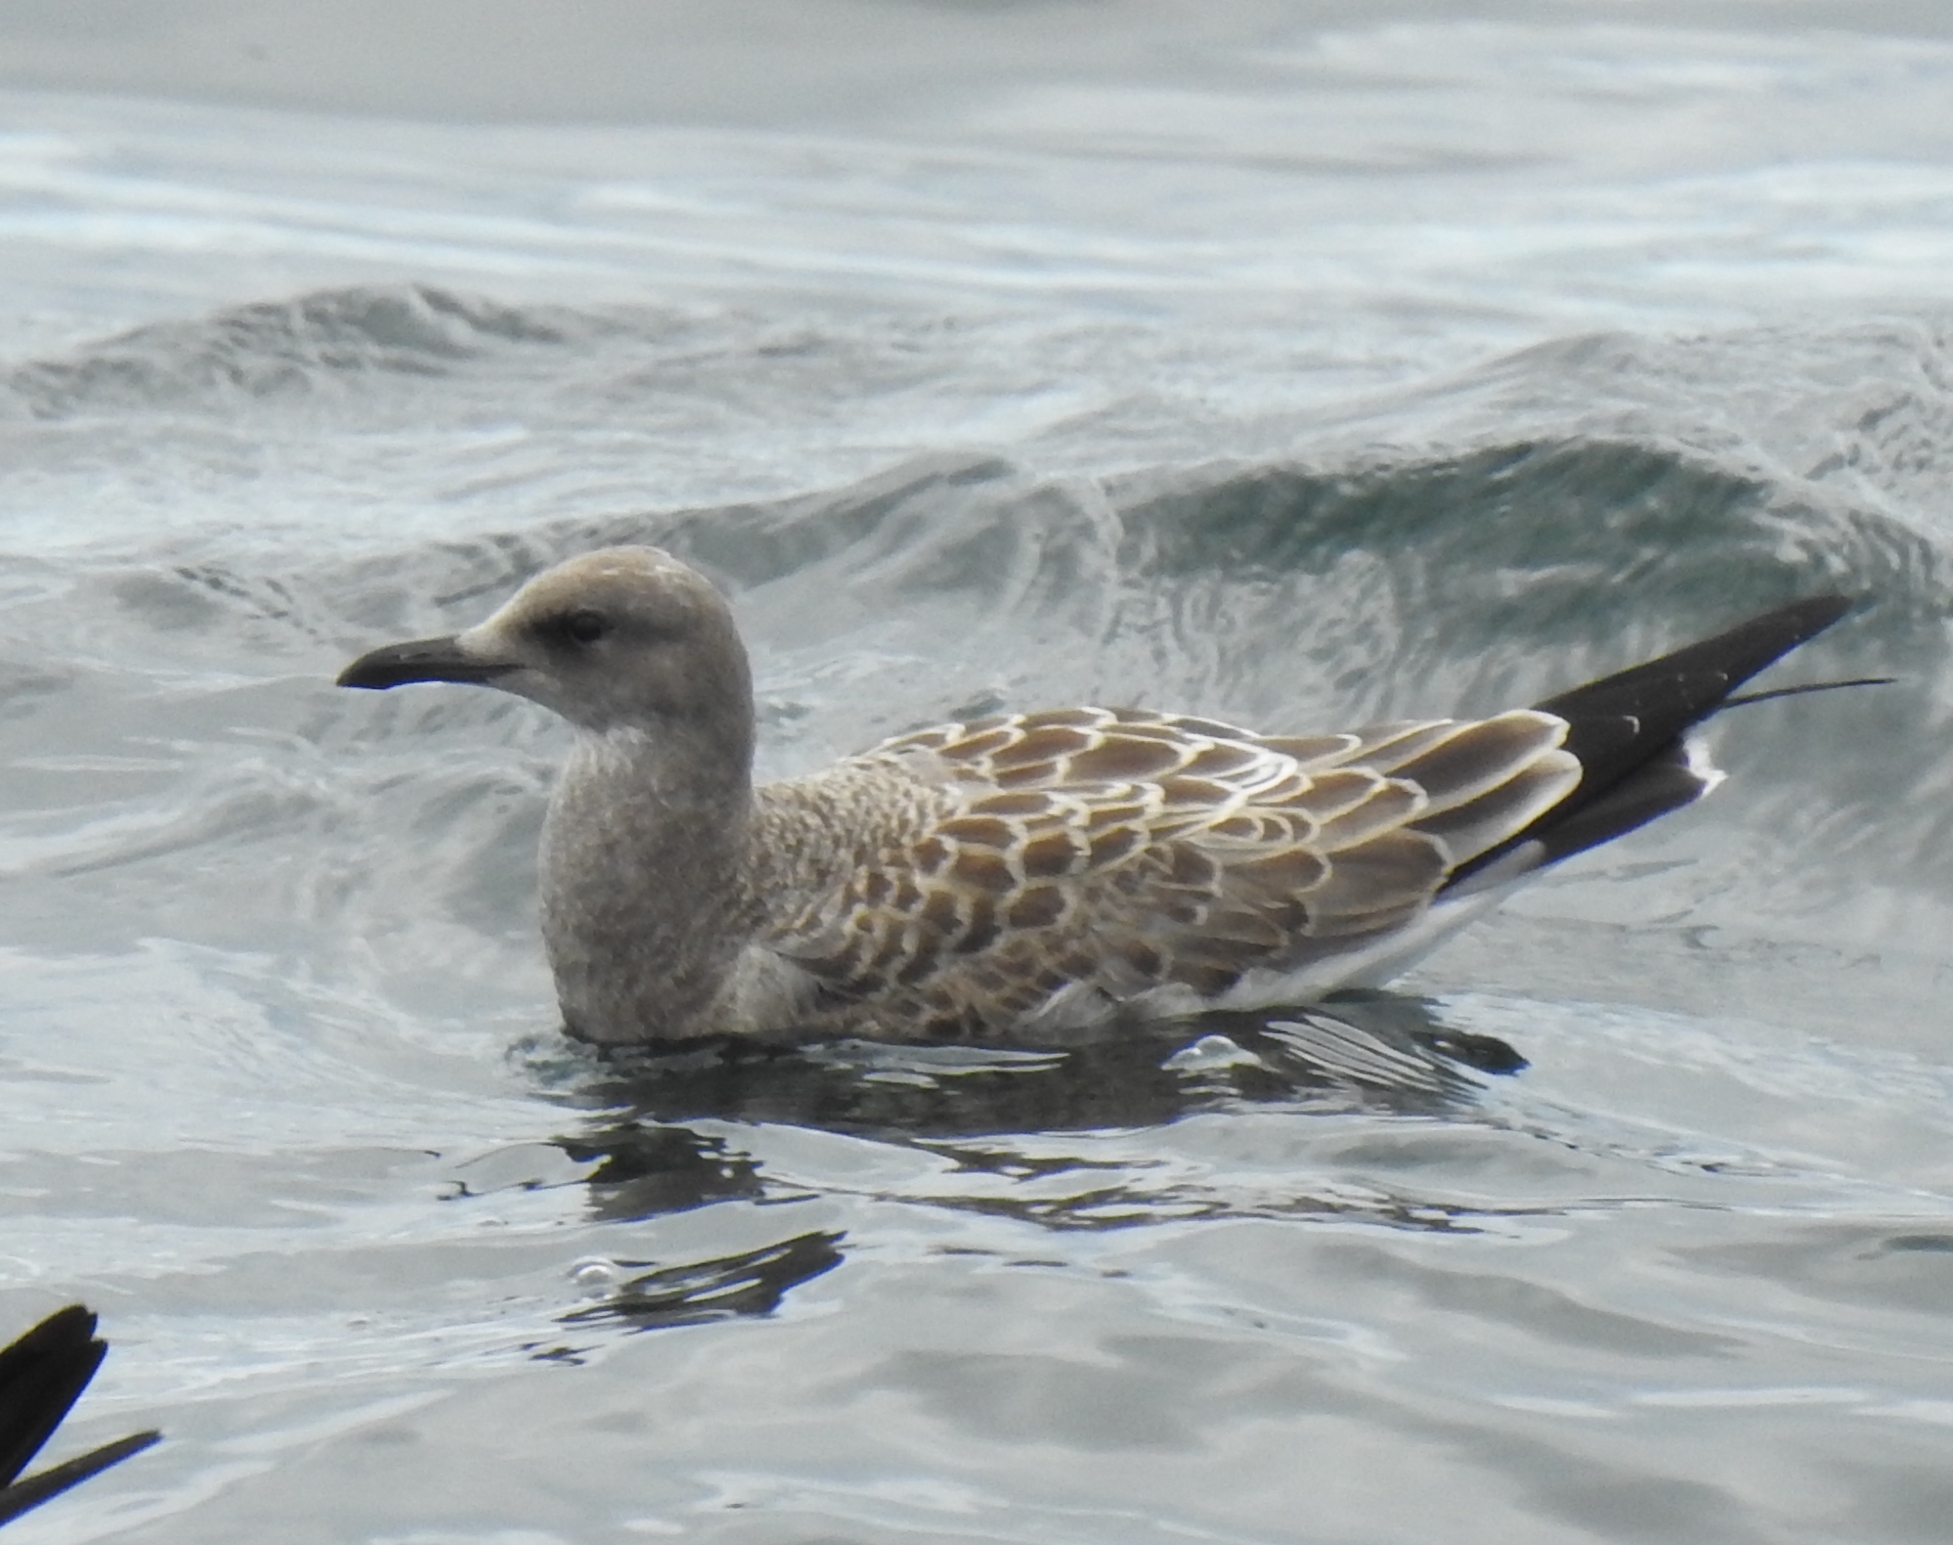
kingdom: Animalia
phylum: Chordata
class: Aves
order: Charadriiformes
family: Laridae
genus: Leucophaeus
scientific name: Leucophaeus atricilla
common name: Laughing gull
